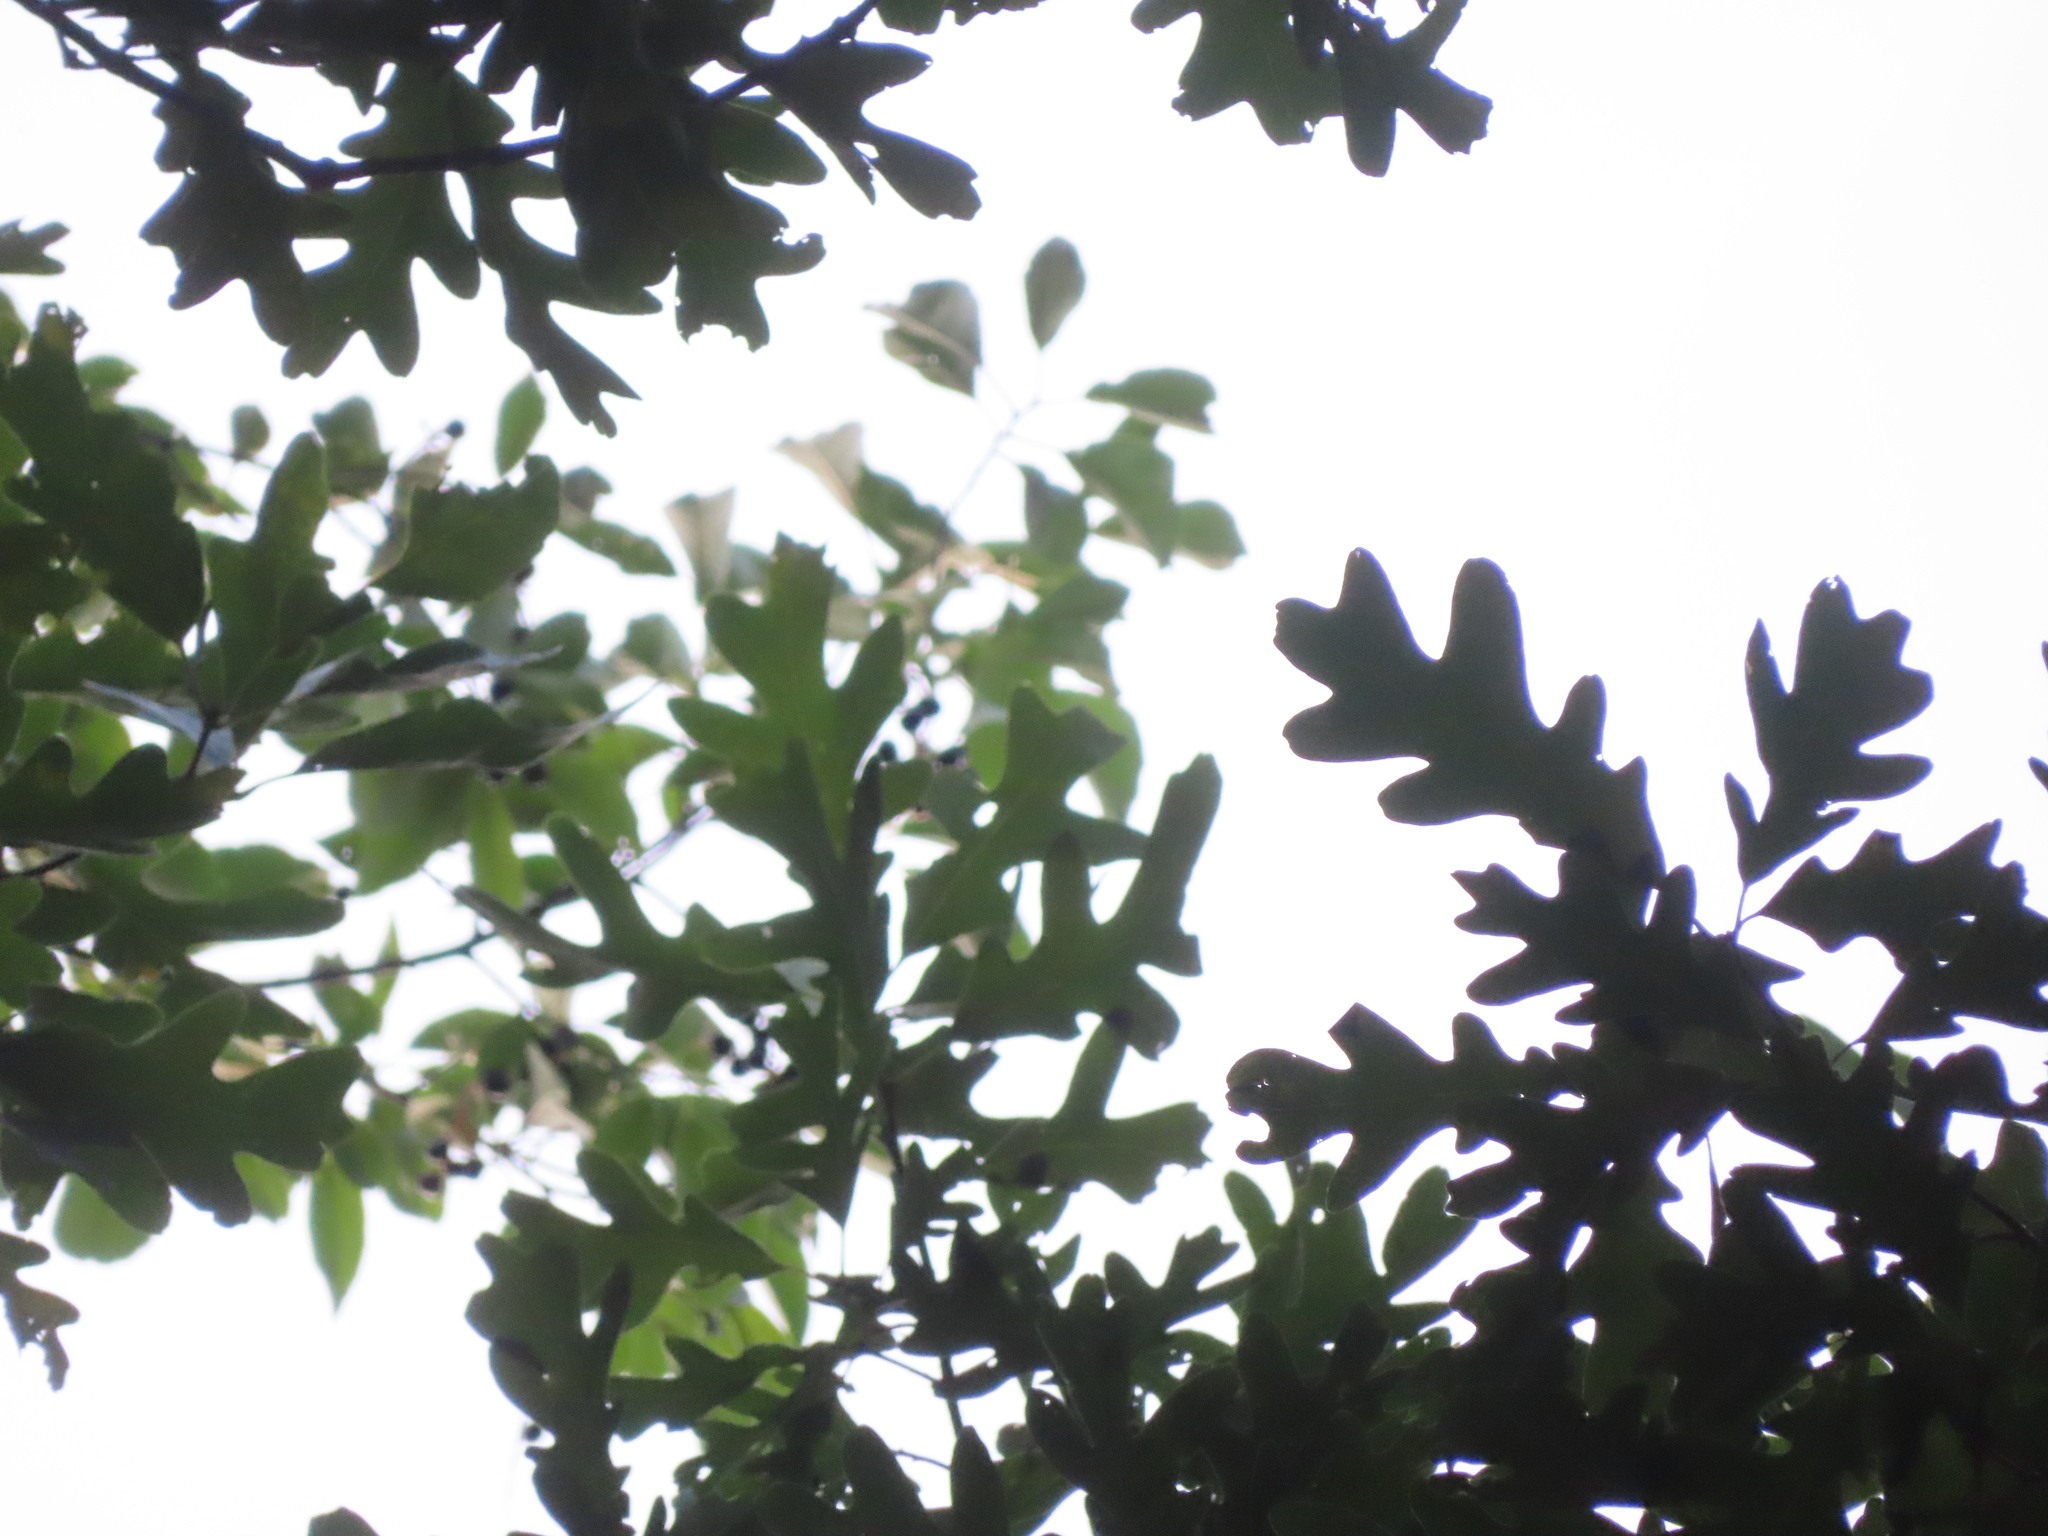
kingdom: Plantae
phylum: Tracheophyta
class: Magnoliopsida
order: Fagales
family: Fagaceae
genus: Quercus
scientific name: Quercus alba
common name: White oak
